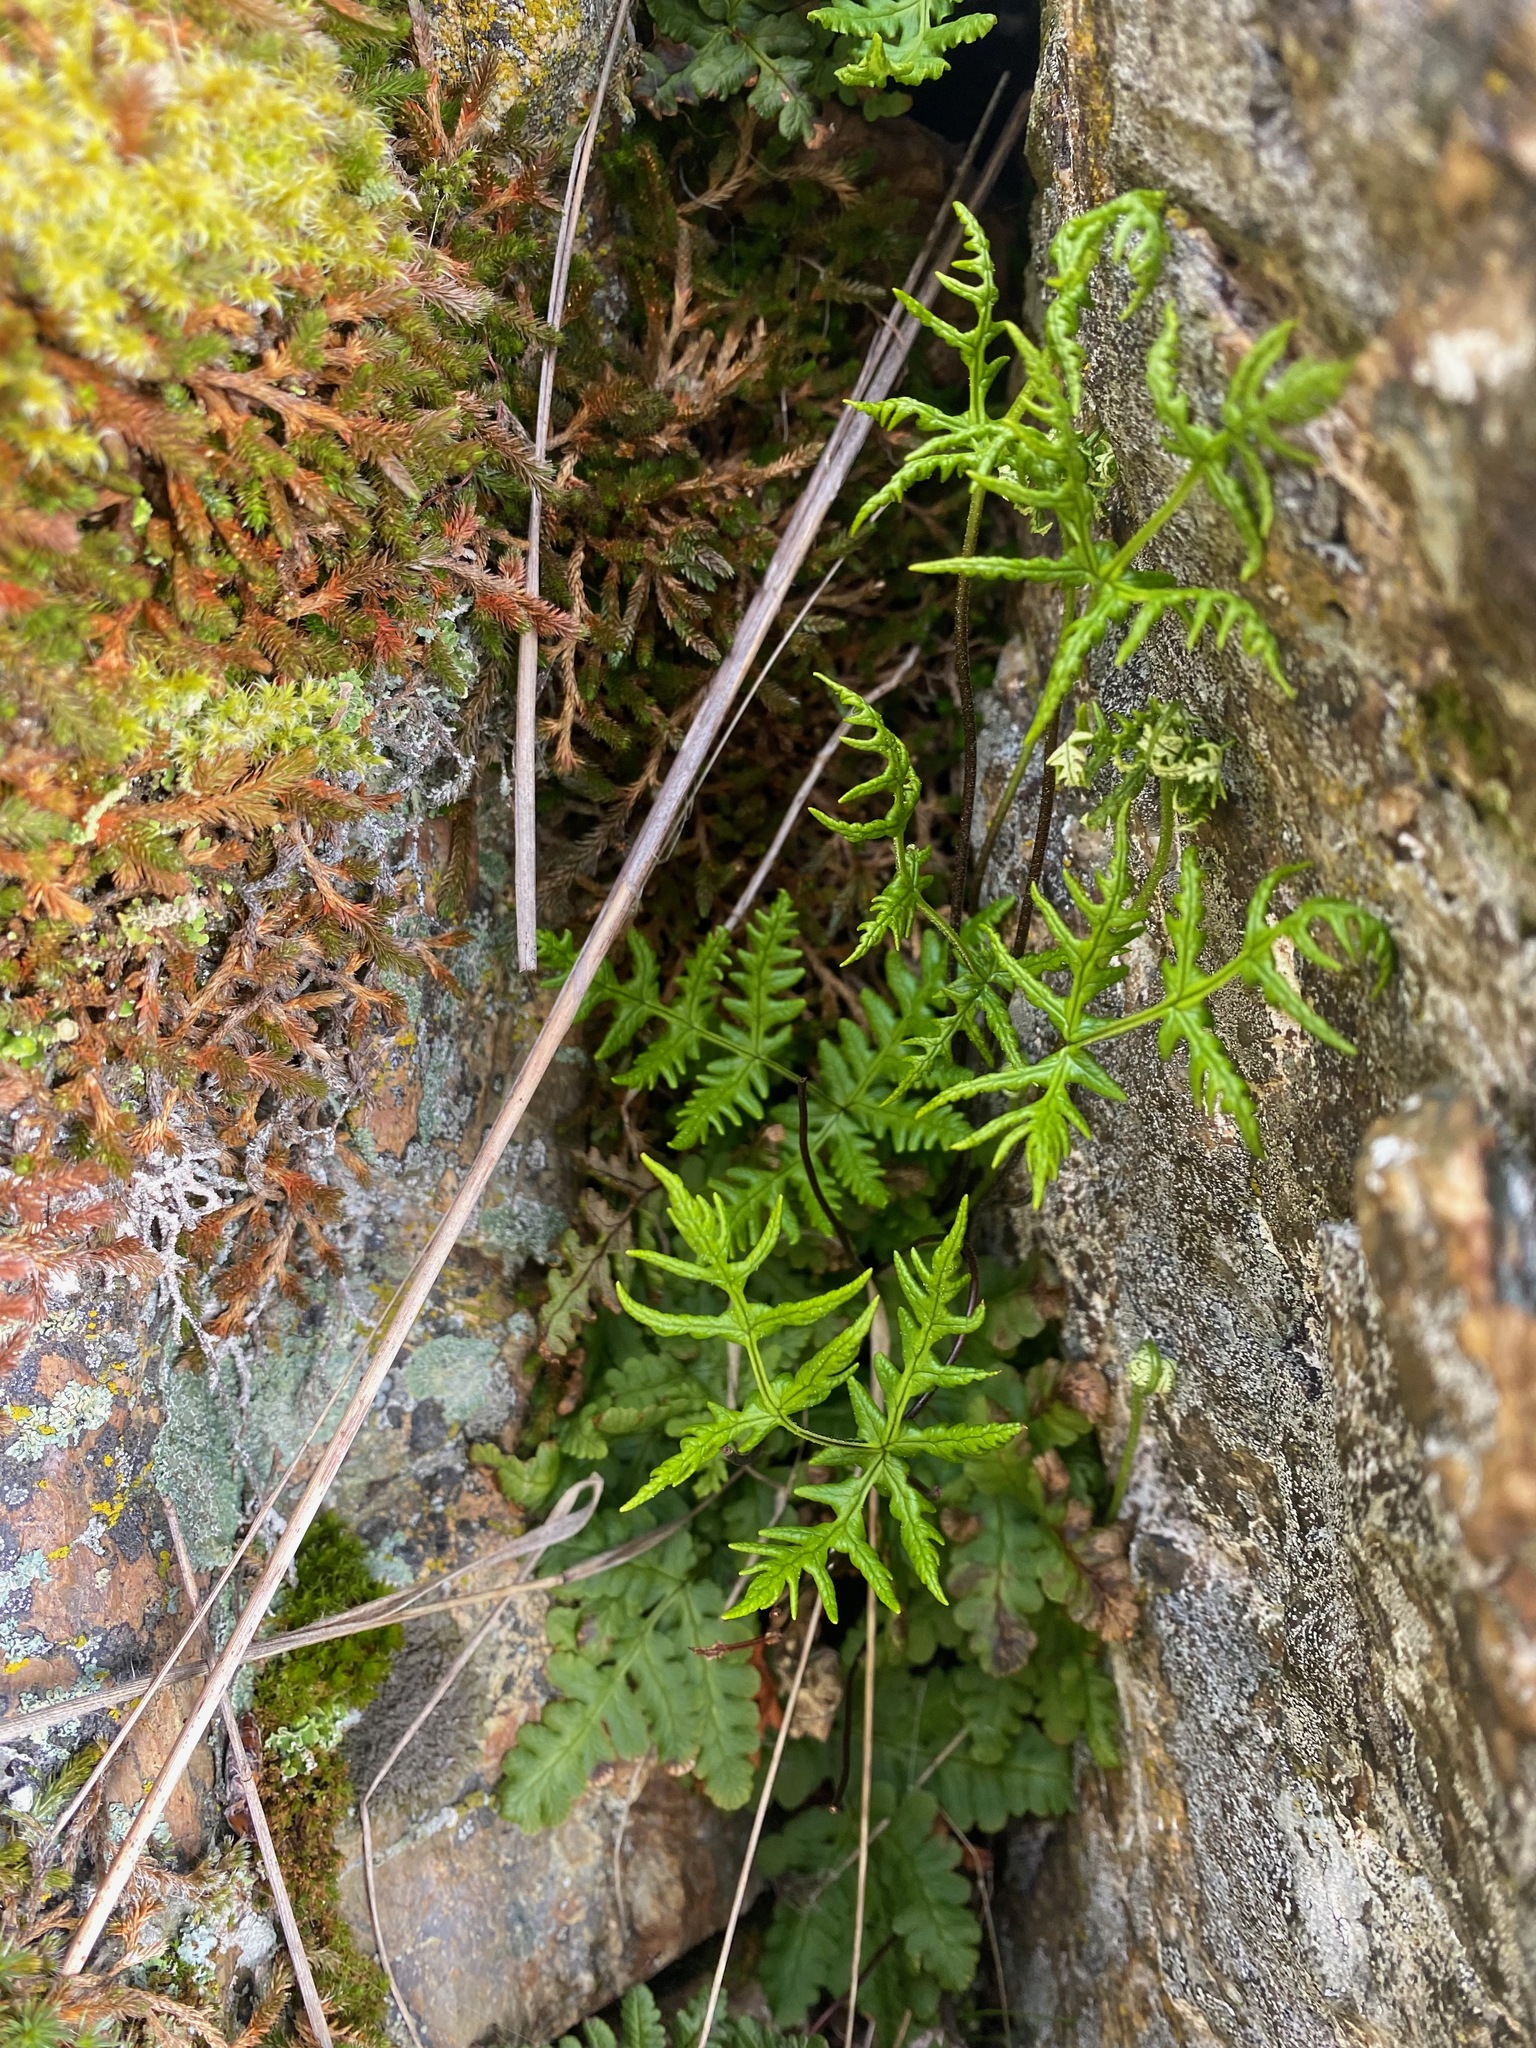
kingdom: Plantae
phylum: Tracheophyta
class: Polypodiopsida
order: Polypodiales
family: Pteridaceae
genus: Pentagramma
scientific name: Pentagramma triangularis
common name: Gold fern
